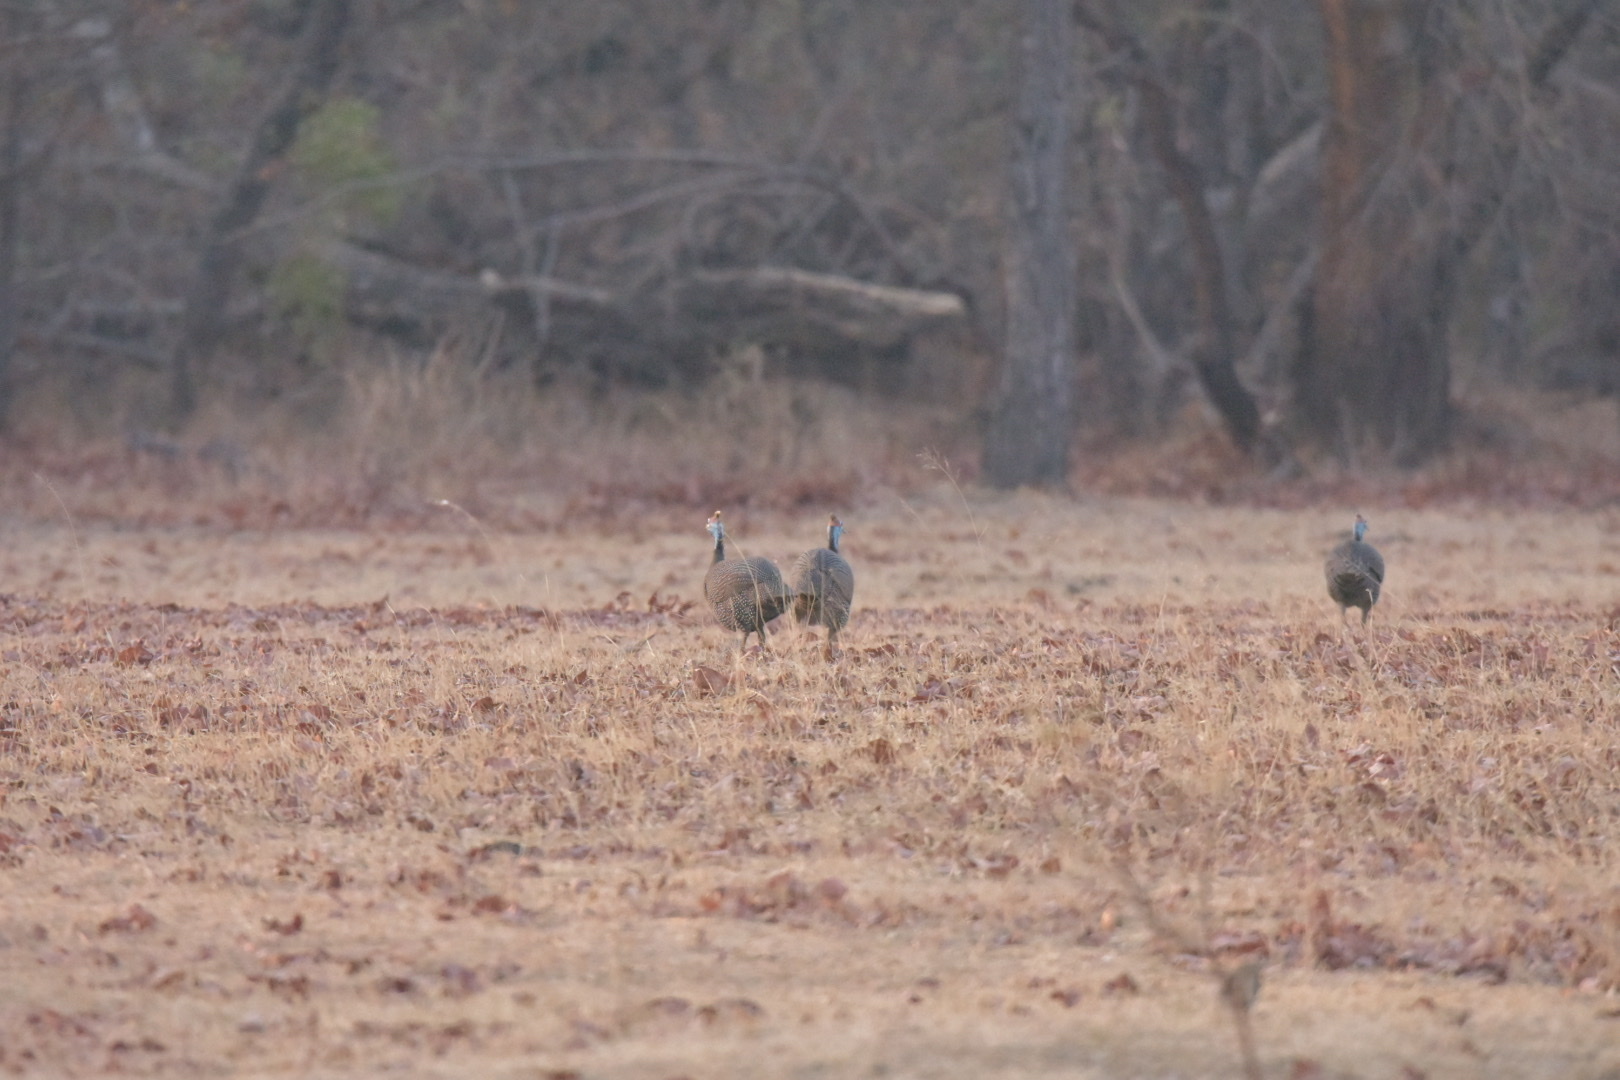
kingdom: Animalia
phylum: Chordata
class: Aves
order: Galliformes
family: Numididae
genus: Numida
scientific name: Numida meleagris
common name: Helmeted guineafowl
